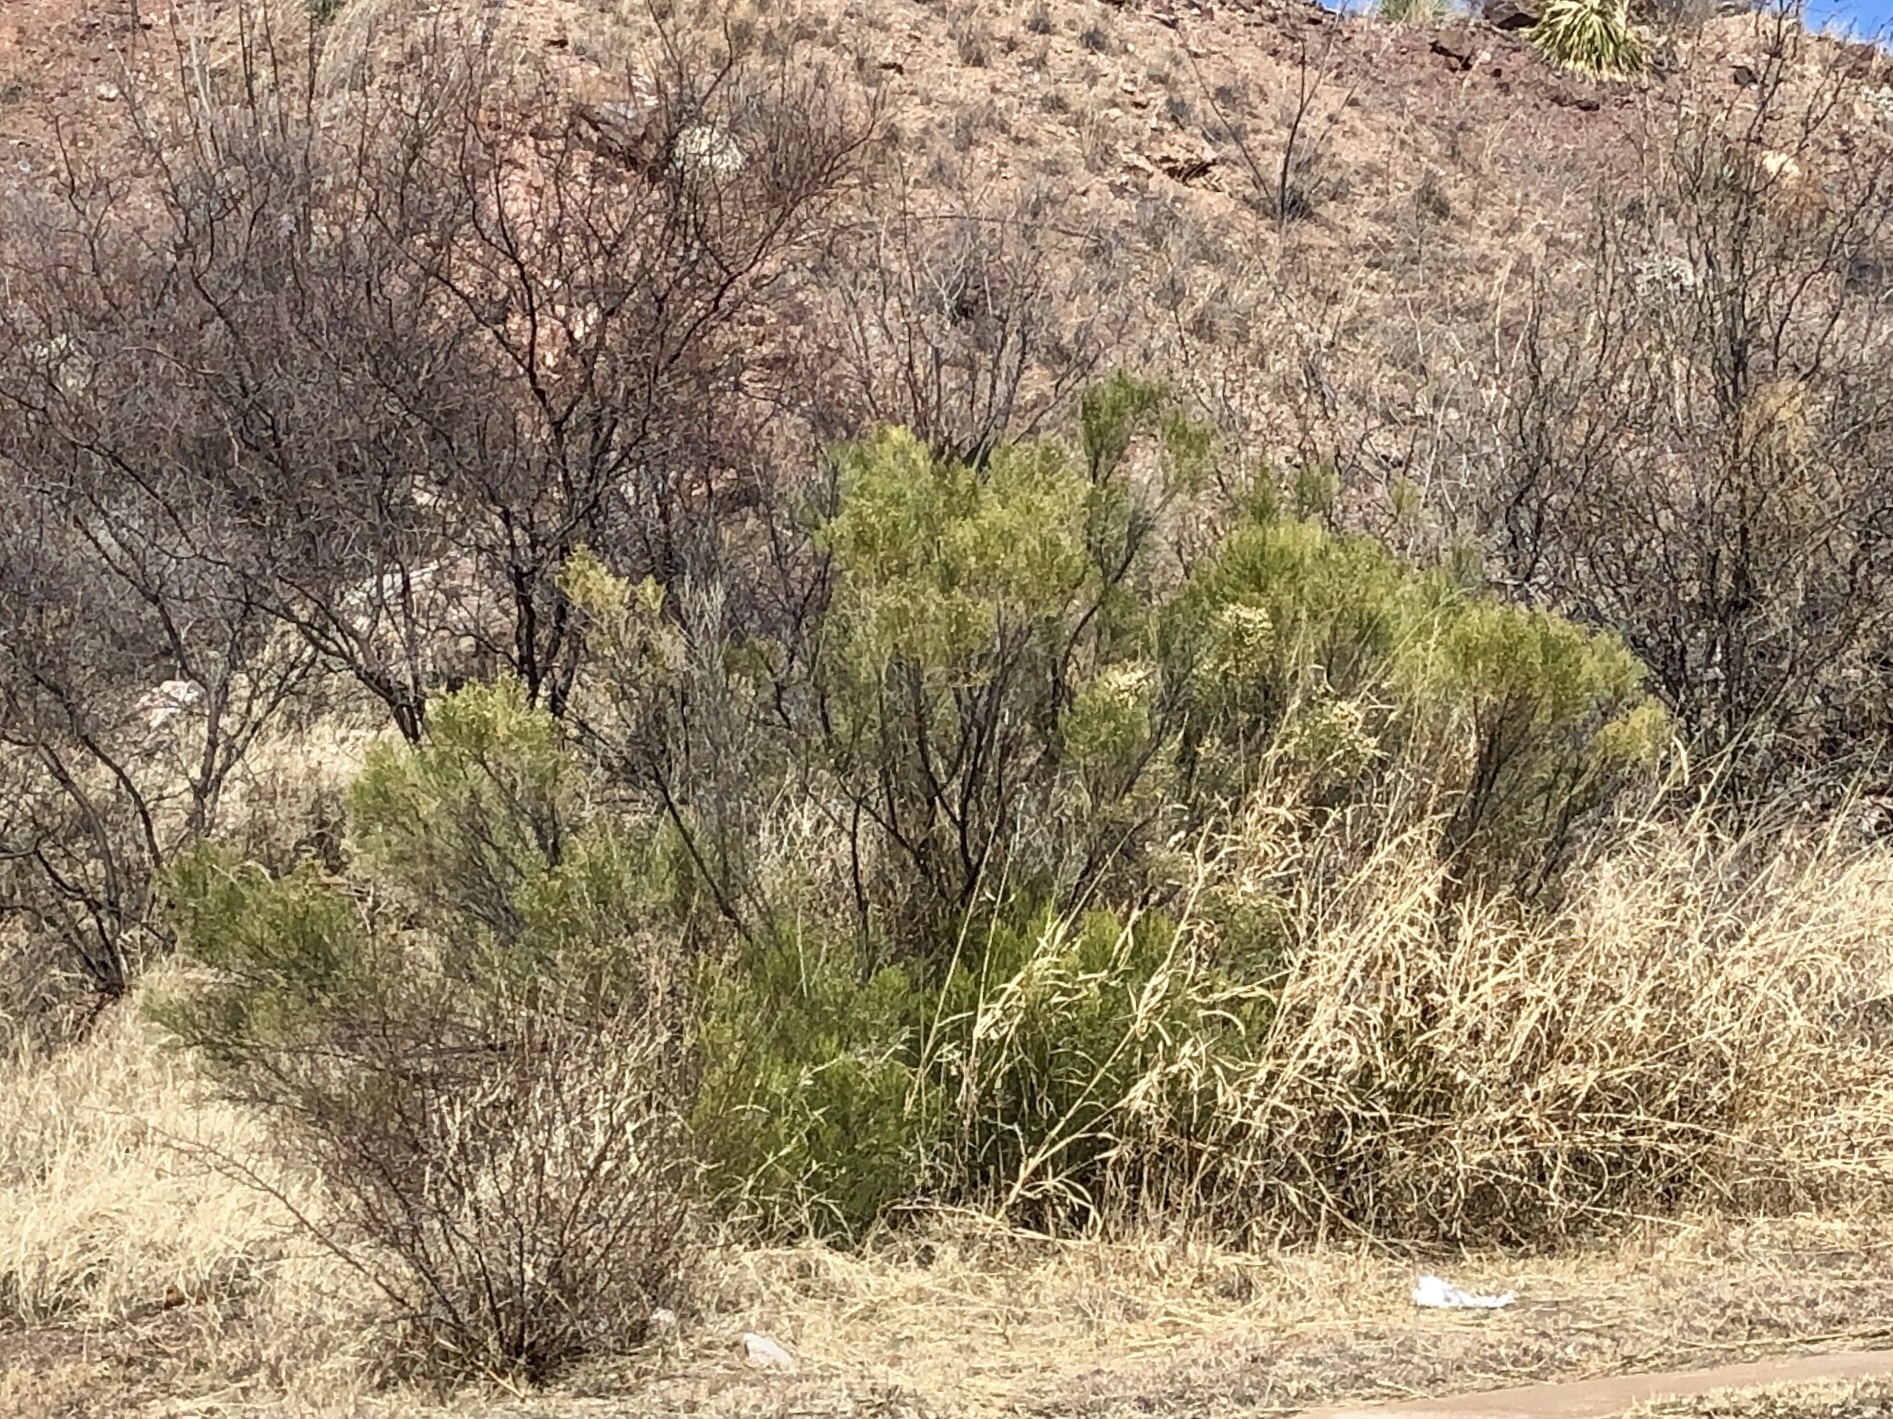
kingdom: Plantae
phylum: Tracheophyta
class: Magnoliopsida
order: Asterales
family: Asteraceae
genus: Baccharis
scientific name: Baccharis sarothroides
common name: Desert-broom
